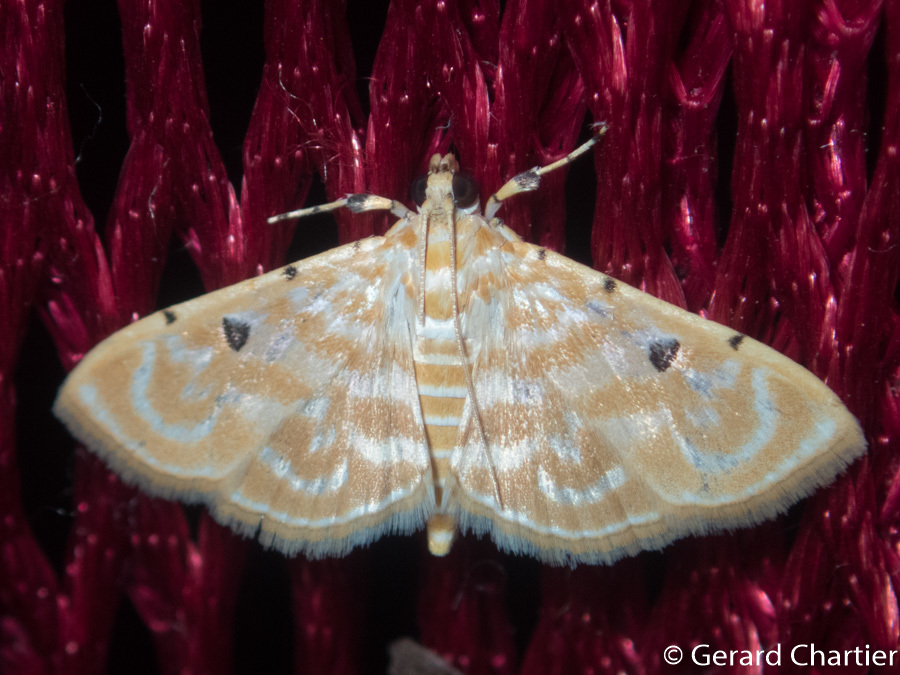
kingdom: Animalia
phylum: Arthropoda
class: Insecta
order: Lepidoptera
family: Crambidae
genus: Notarcha
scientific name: Notarcha aurolinealis
